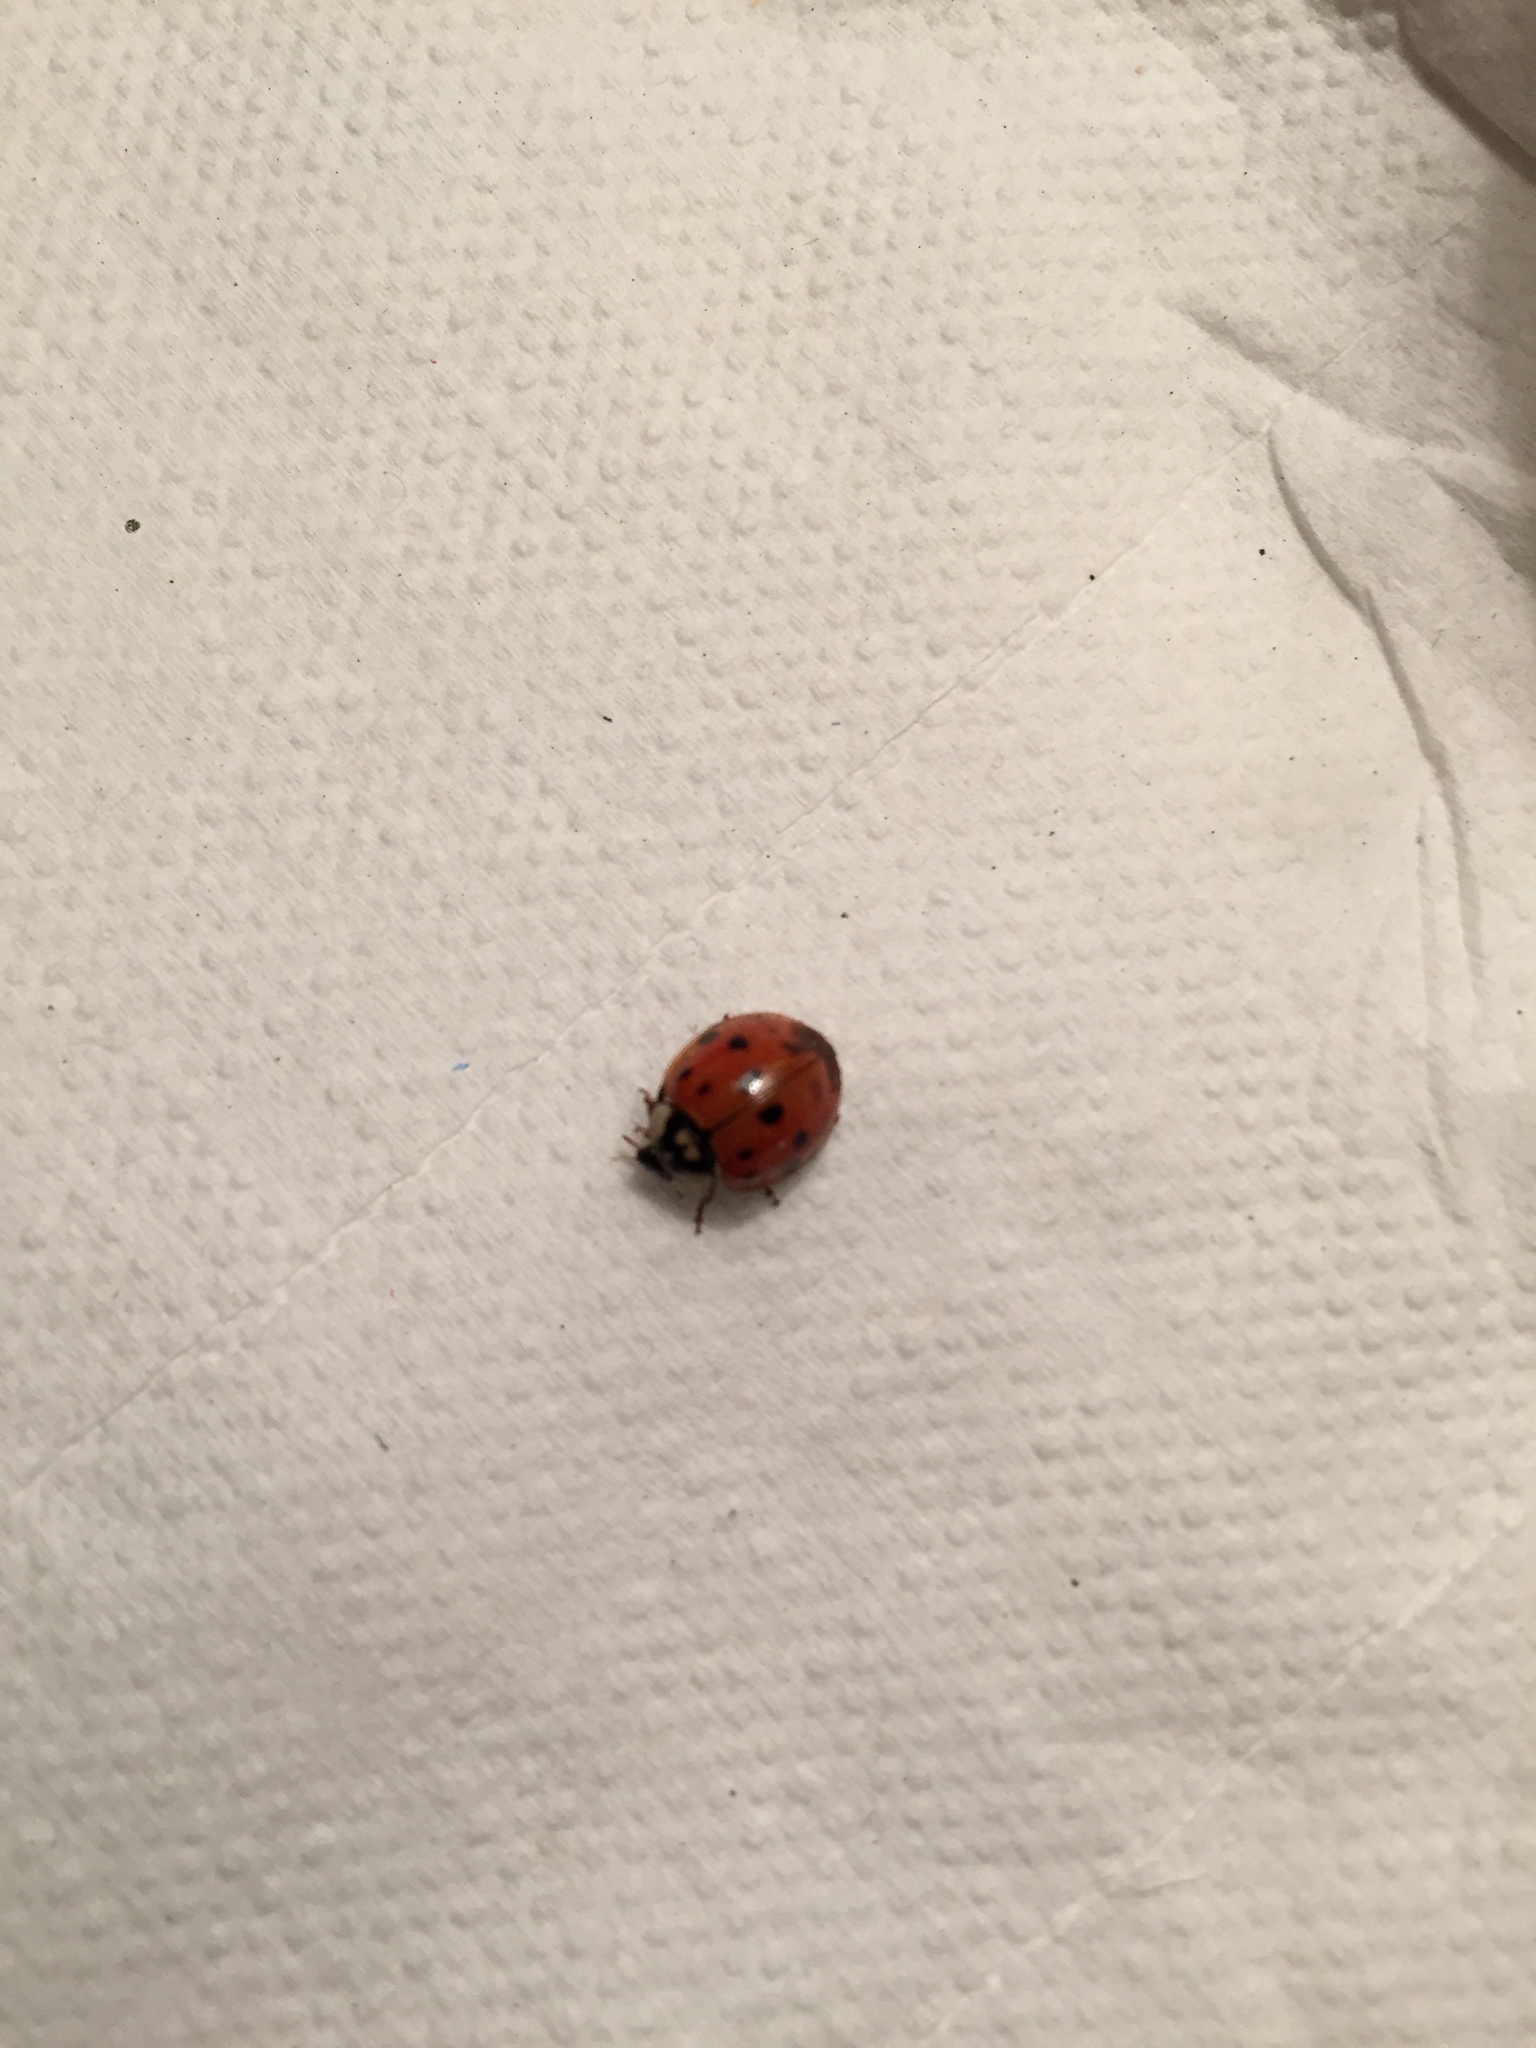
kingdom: Animalia
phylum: Arthropoda
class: Insecta
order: Coleoptera
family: Coccinellidae
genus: Harmonia
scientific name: Harmonia axyridis
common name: Harlequin ladybird
